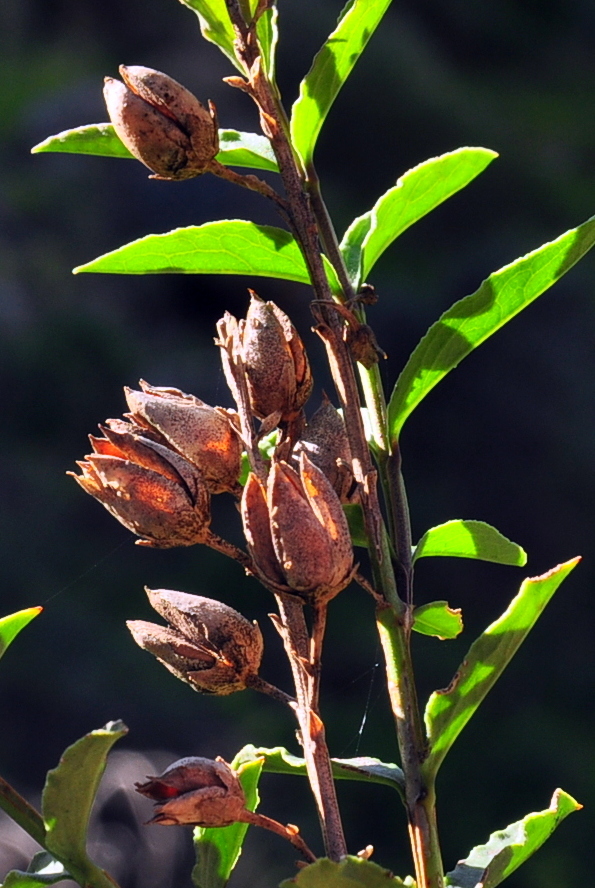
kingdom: Plantae
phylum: Tracheophyta
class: Magnoliopsida
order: Lamiales
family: Scrophulariaceae
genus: Freylinia
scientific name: Freylinia helmei
